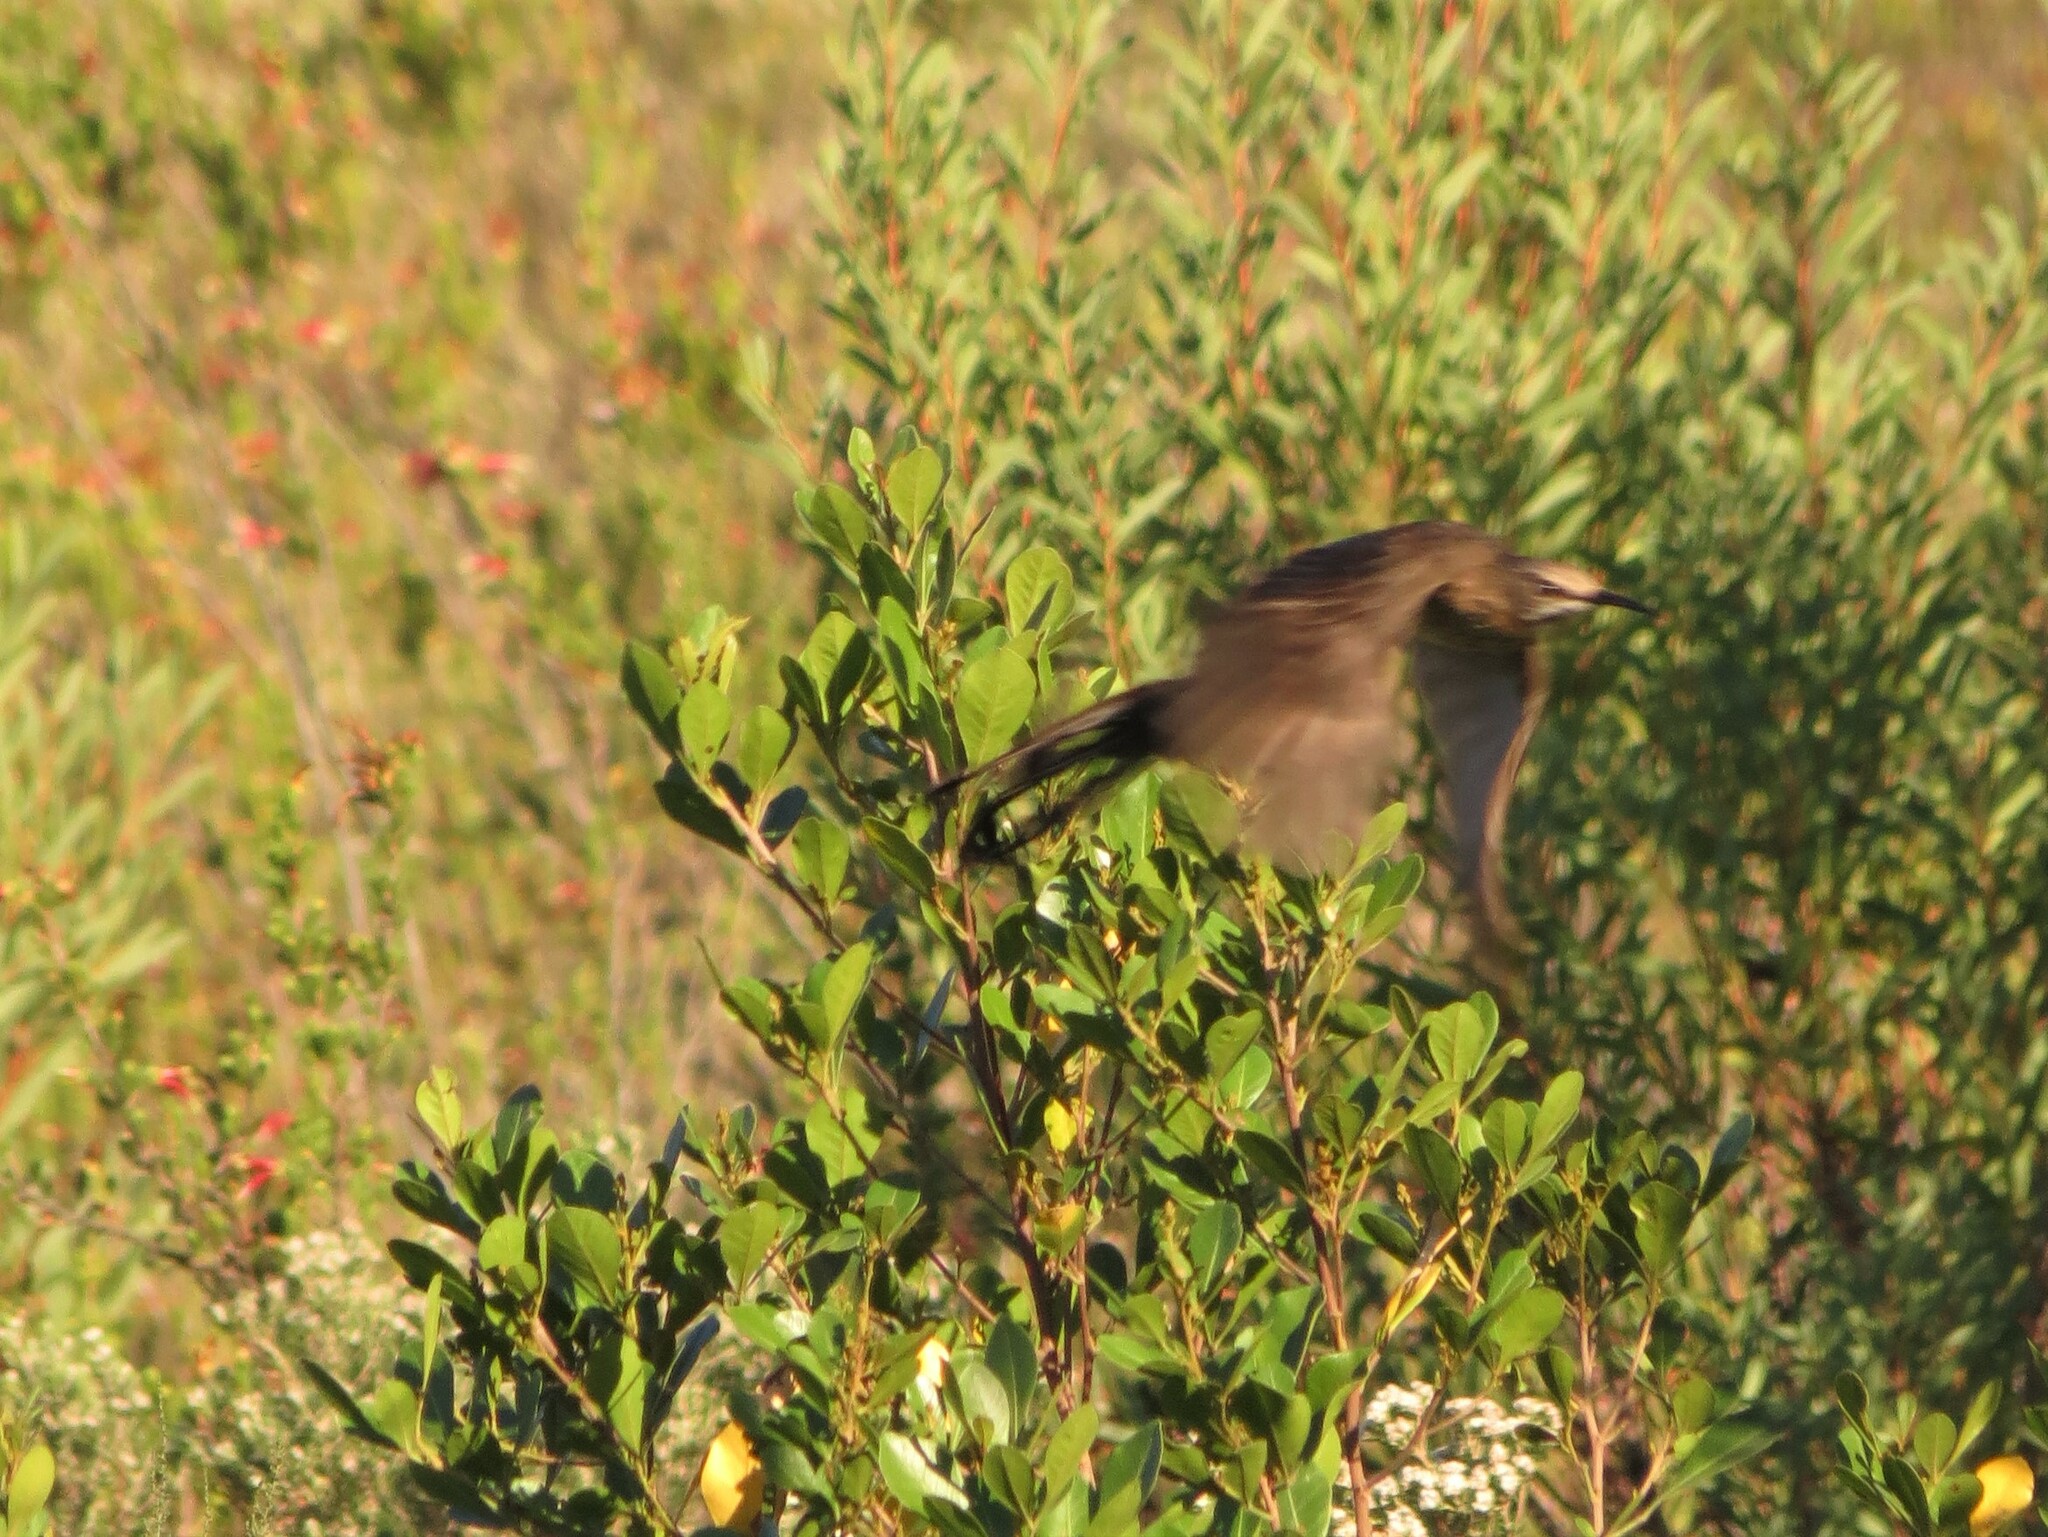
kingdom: Animalia
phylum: Chordata
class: Aves
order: Passeriformes
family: Promeropidae
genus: Promerops
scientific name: Promerops cafer
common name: Cape sugarbird
